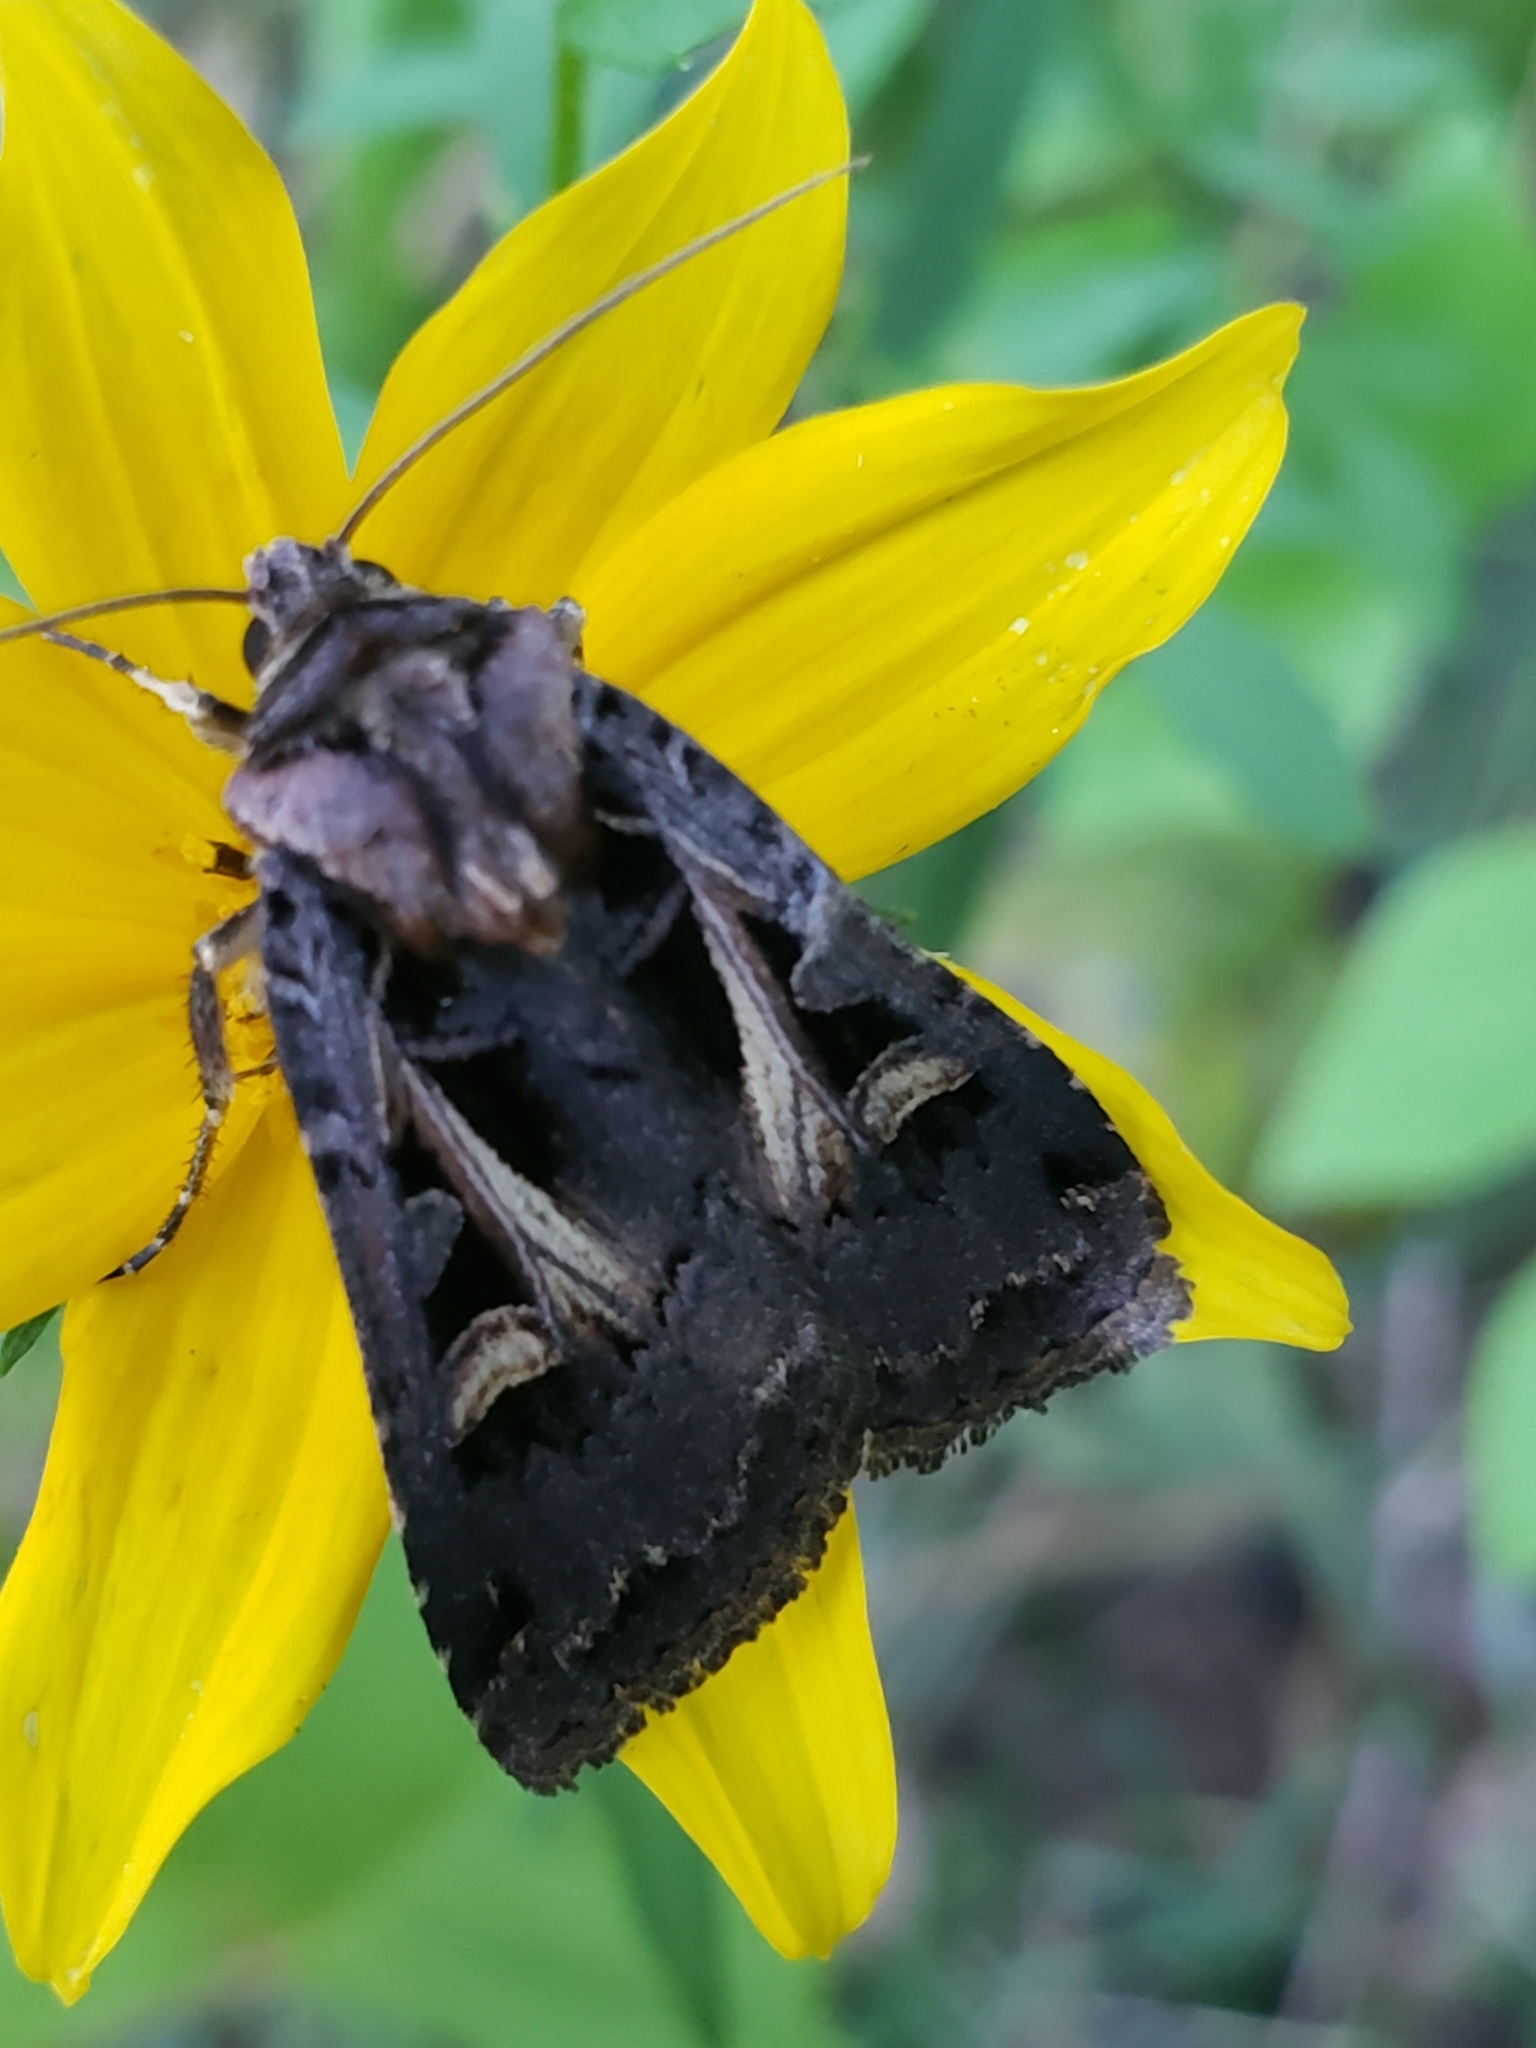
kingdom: Animalia
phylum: Arthropoda
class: Insecta
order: Lepidoptera
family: Noctuidae
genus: Feltia
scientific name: Feltia herilis
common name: Master's dart
